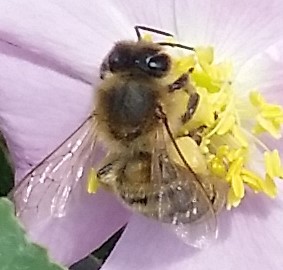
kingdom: Animalia
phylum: Arthropoda
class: Insecta
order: Hymenoptera
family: Apidae
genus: Apis
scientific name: Apis mellifera
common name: Honey bee
